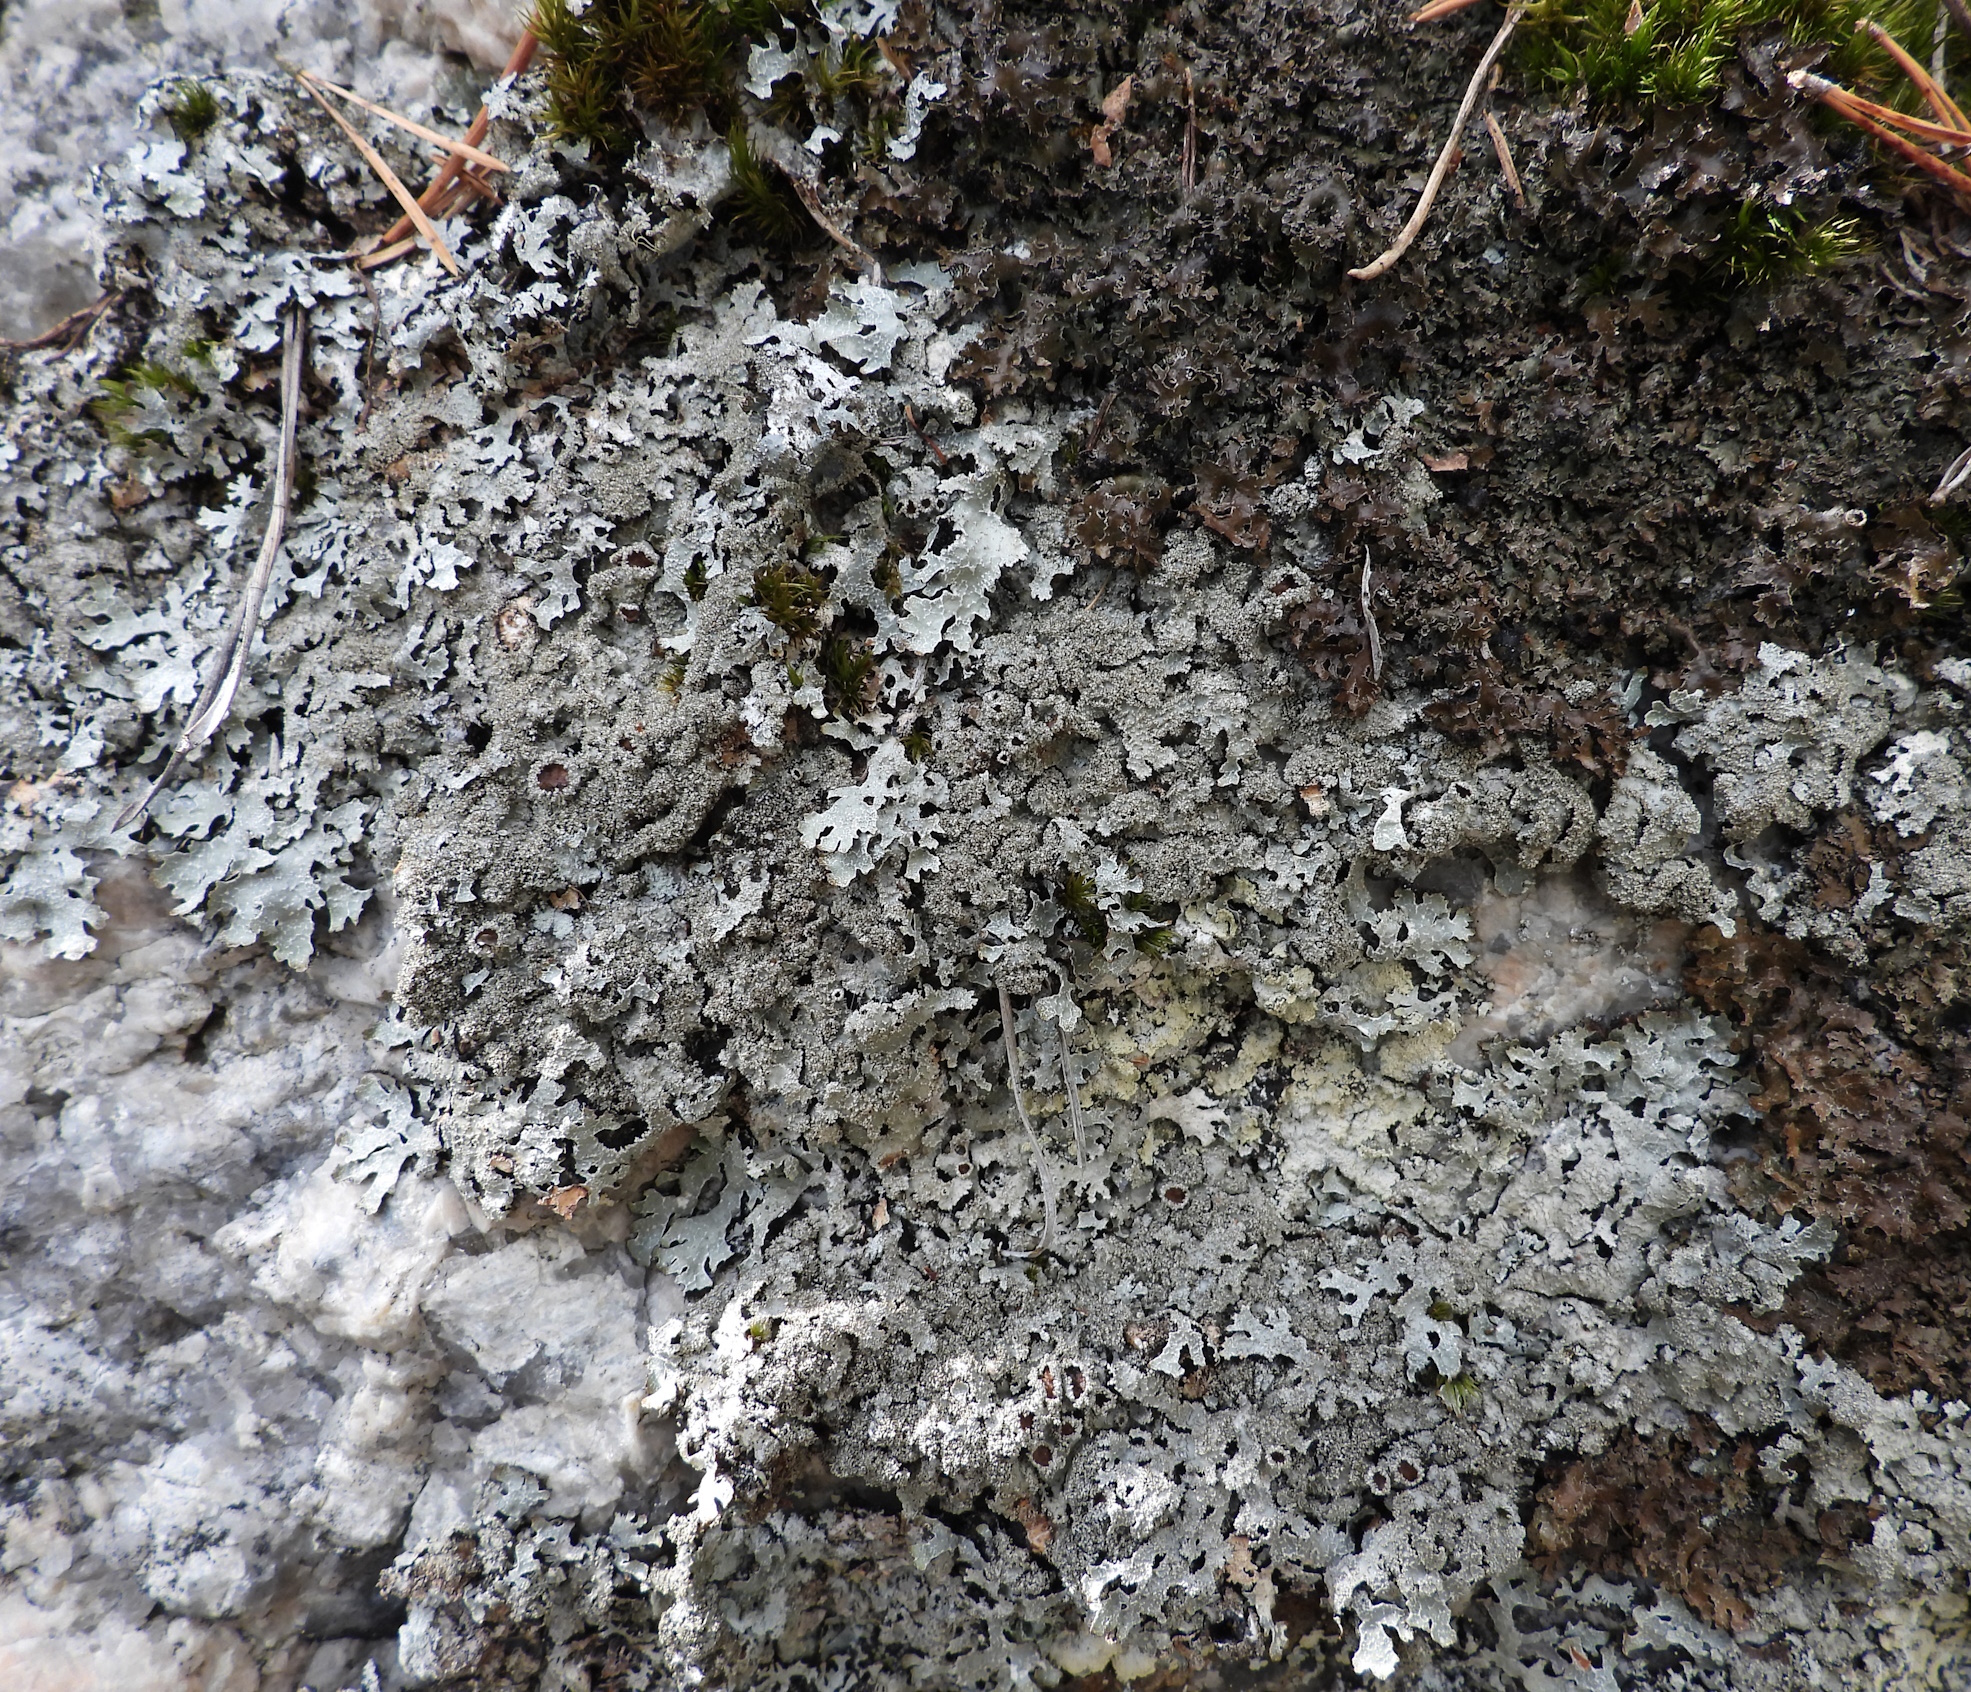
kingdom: Fungi
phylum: Ascomycota
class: Lecanoromycetes
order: Lecanorales
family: Parmeliaceae
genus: Parmelia
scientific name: Parmelia saxatilis
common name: Salted shield lichen
